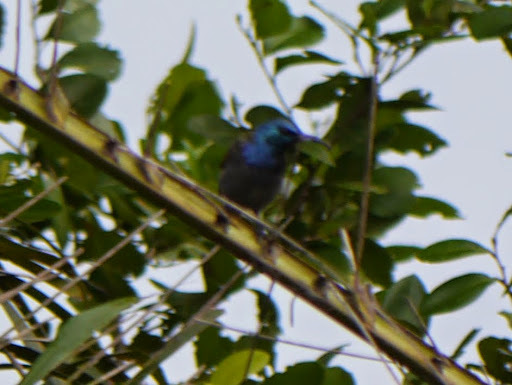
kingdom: Animalia
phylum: Chordata
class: Aves
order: Passeriformes
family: Nectariniidae
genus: Anabathmis
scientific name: Anabathmis reichenbachii
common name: Reichenbach's sunbird
